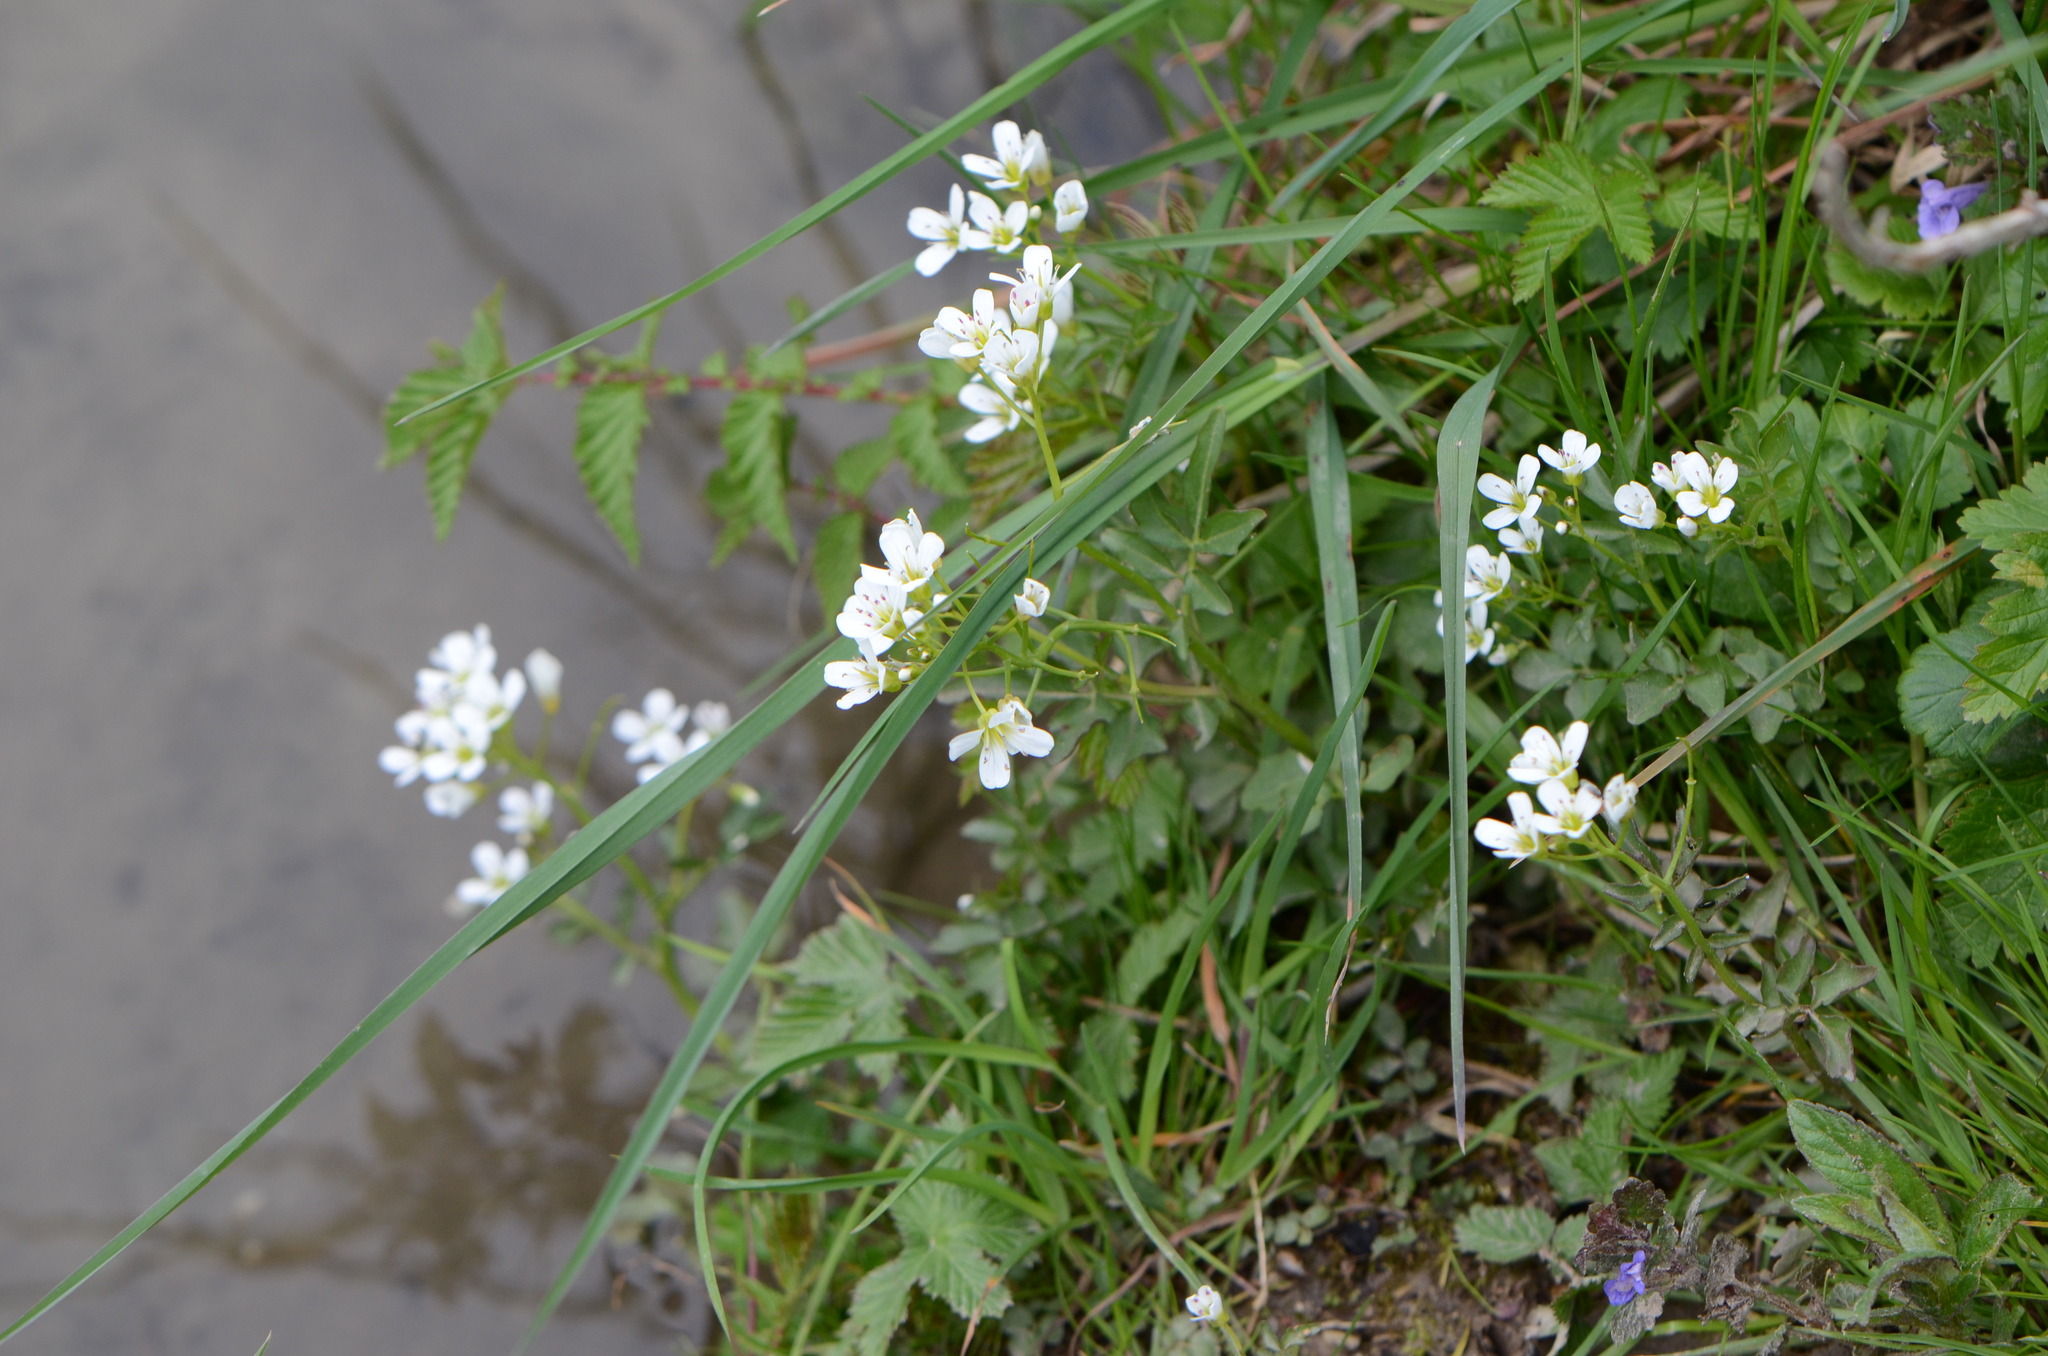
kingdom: Plantae
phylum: Tracheophyta
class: Magnoliopsida
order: Brassicales
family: Brassicaceae
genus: Cardamine
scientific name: Cardamine amara
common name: Large bitter-cress
